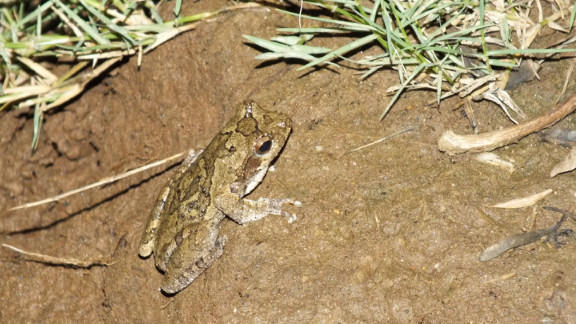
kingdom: Animalia
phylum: Chordata
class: Amphibia
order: Anura
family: Rhacophoridae
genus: Chiromantis
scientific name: Chiromantis xerampelina
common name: African gray treefrog
